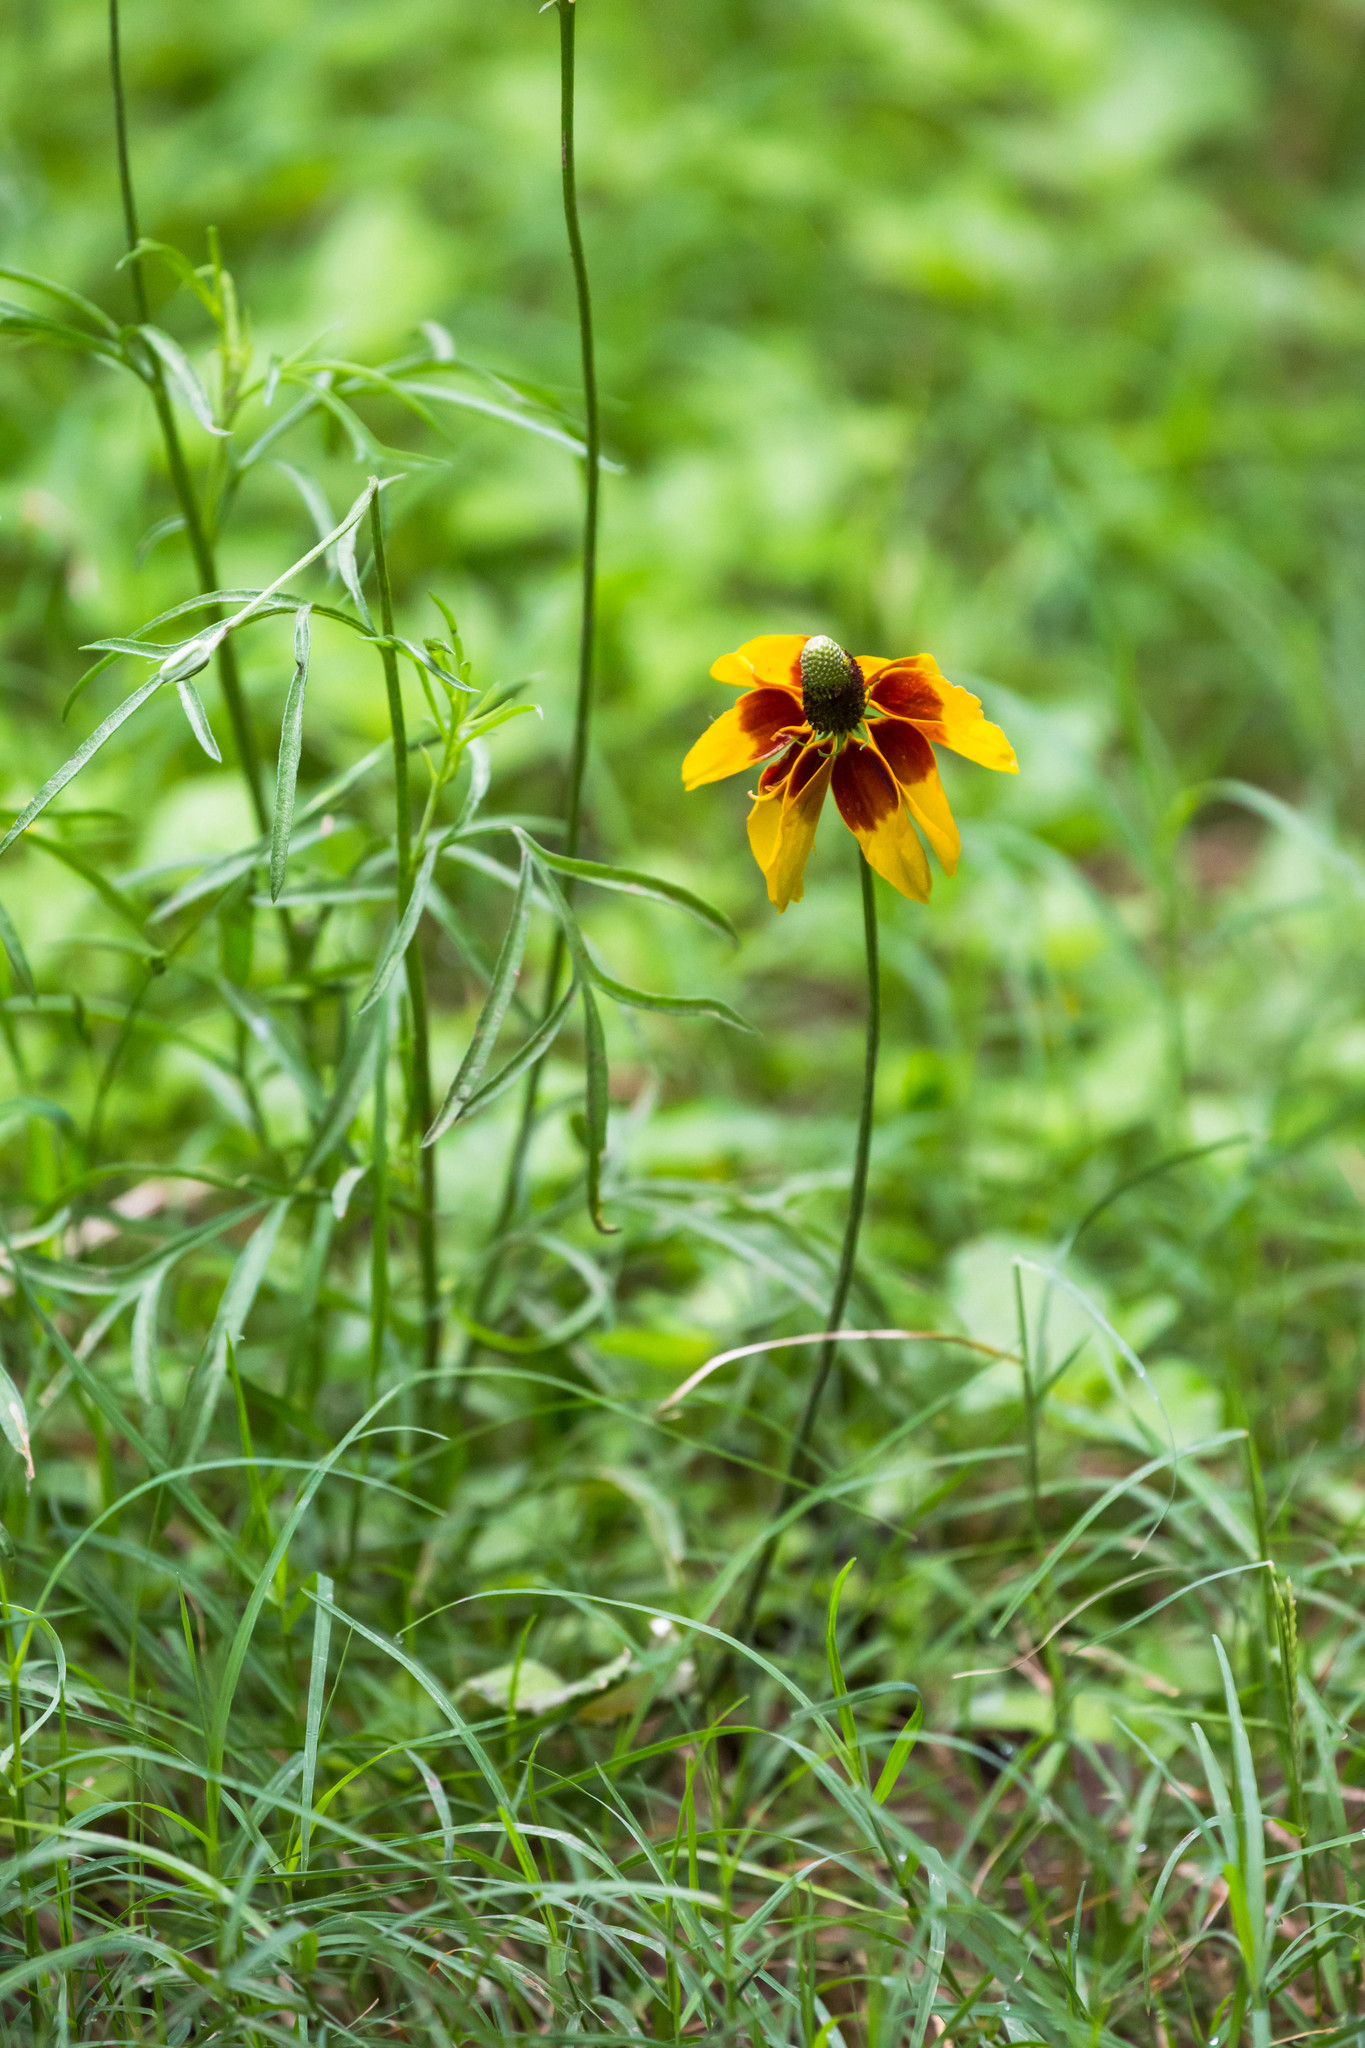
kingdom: Plantae
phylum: Tracheophyta
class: Magnoliopsida
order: Asterales
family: Asteraceae
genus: Ratibida
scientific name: Ratibida columnifera
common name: Prairie coneflower
